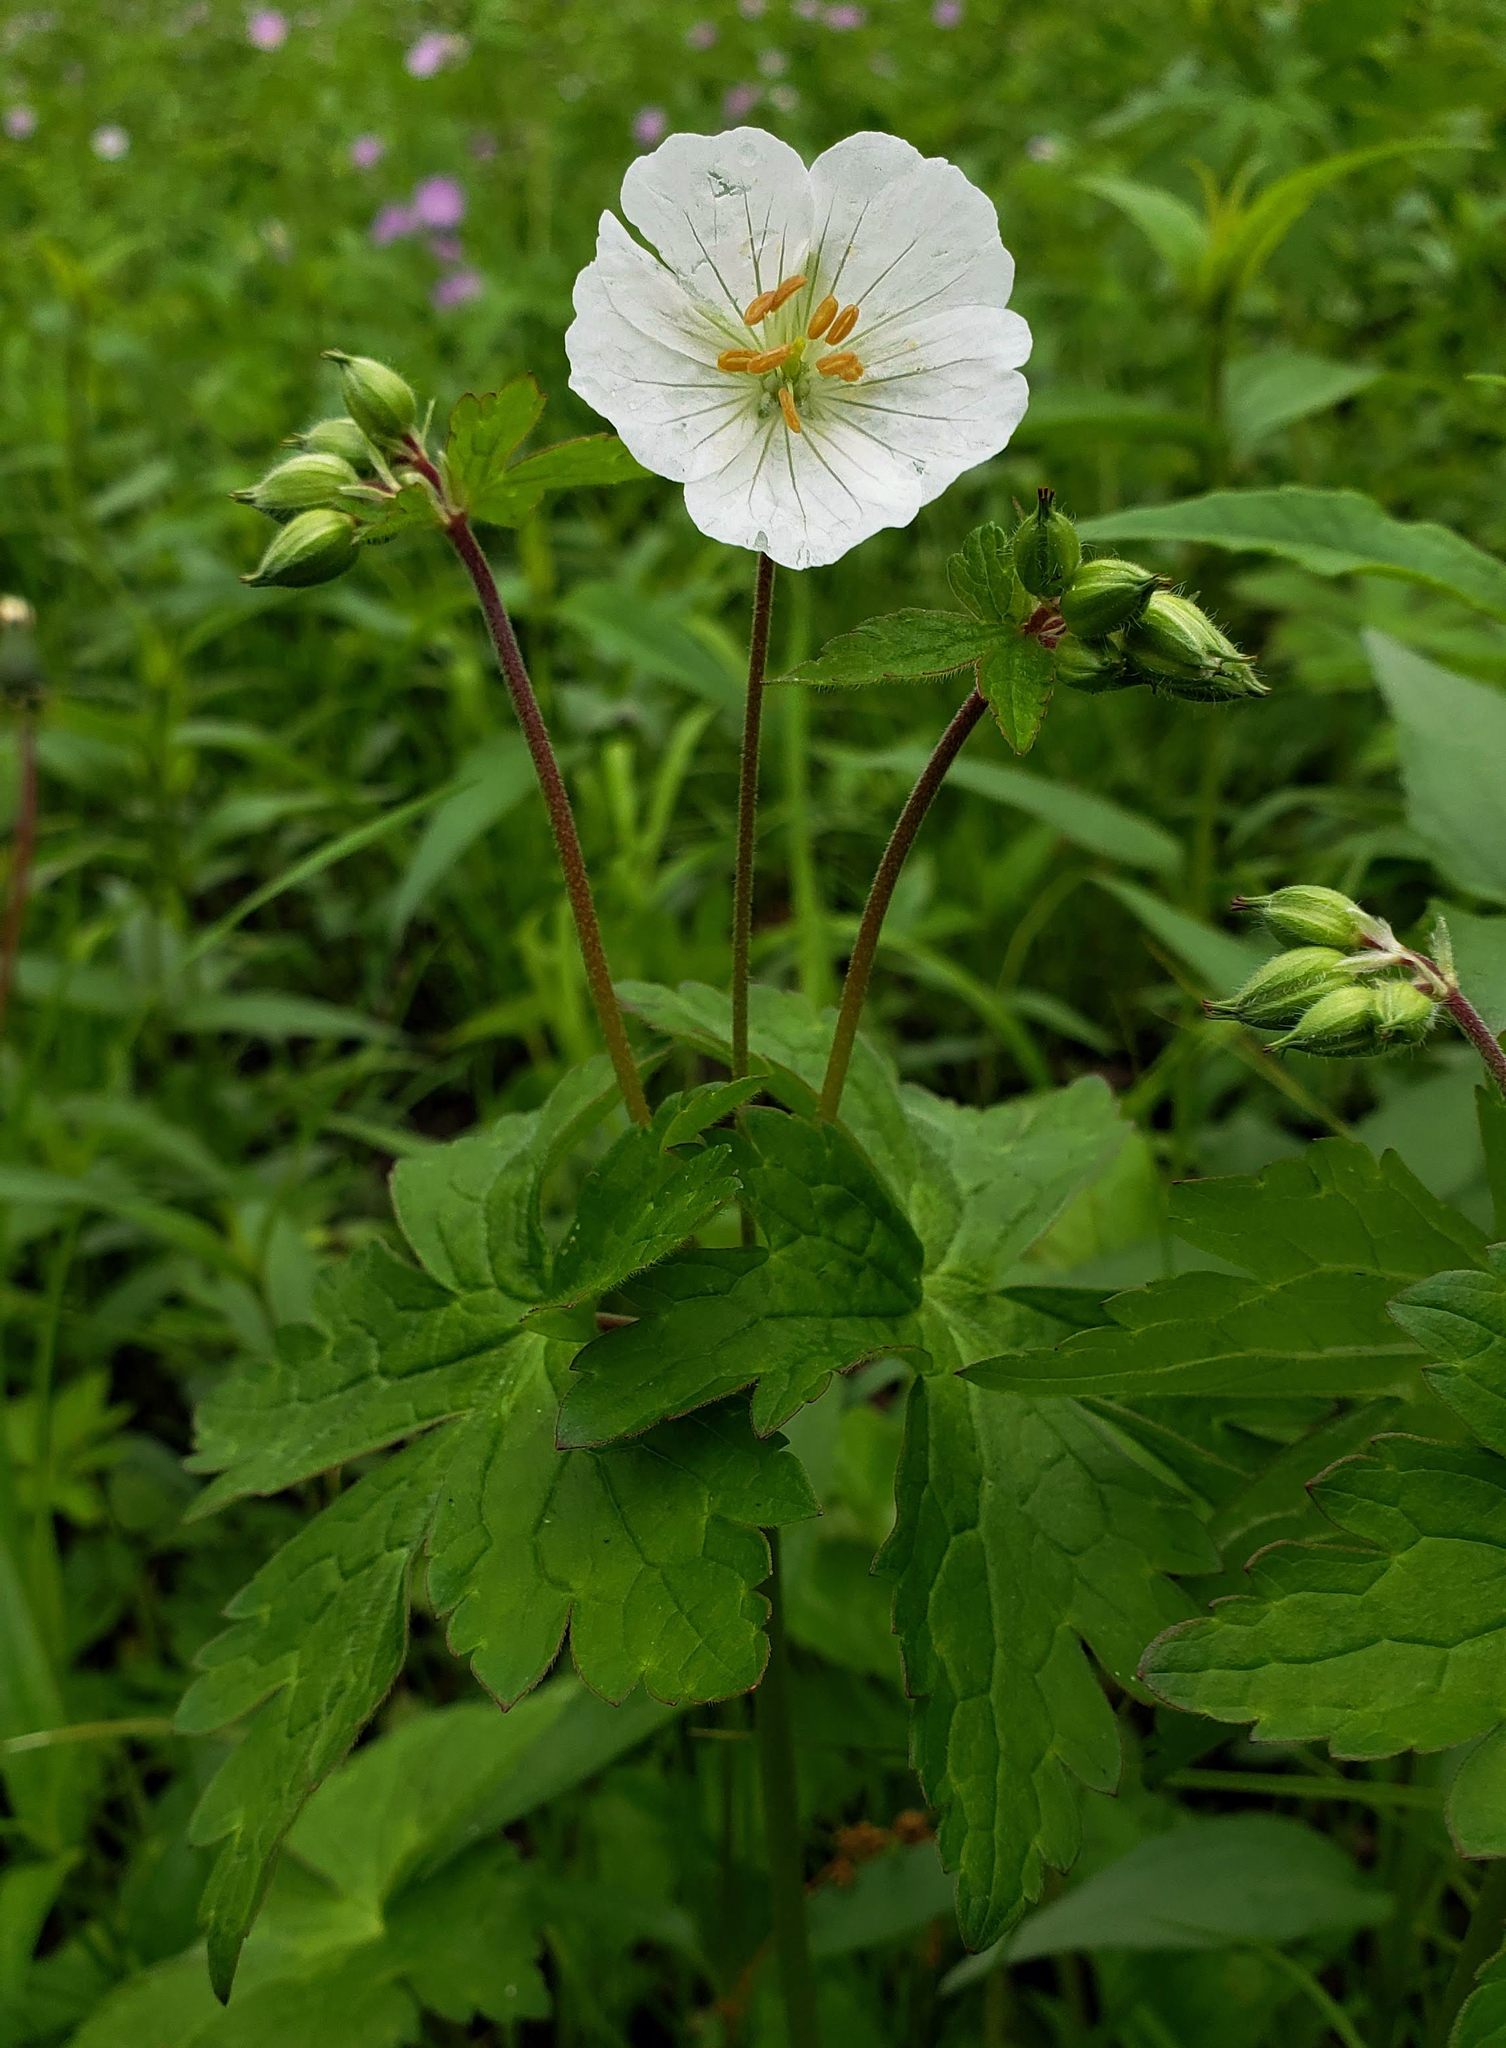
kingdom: Plantae
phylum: Tracheophyta
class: Magnoliopsida
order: Geraniales
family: Geraniaceae
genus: Geranium
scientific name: Geranium maculatum
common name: Spotted geranium
